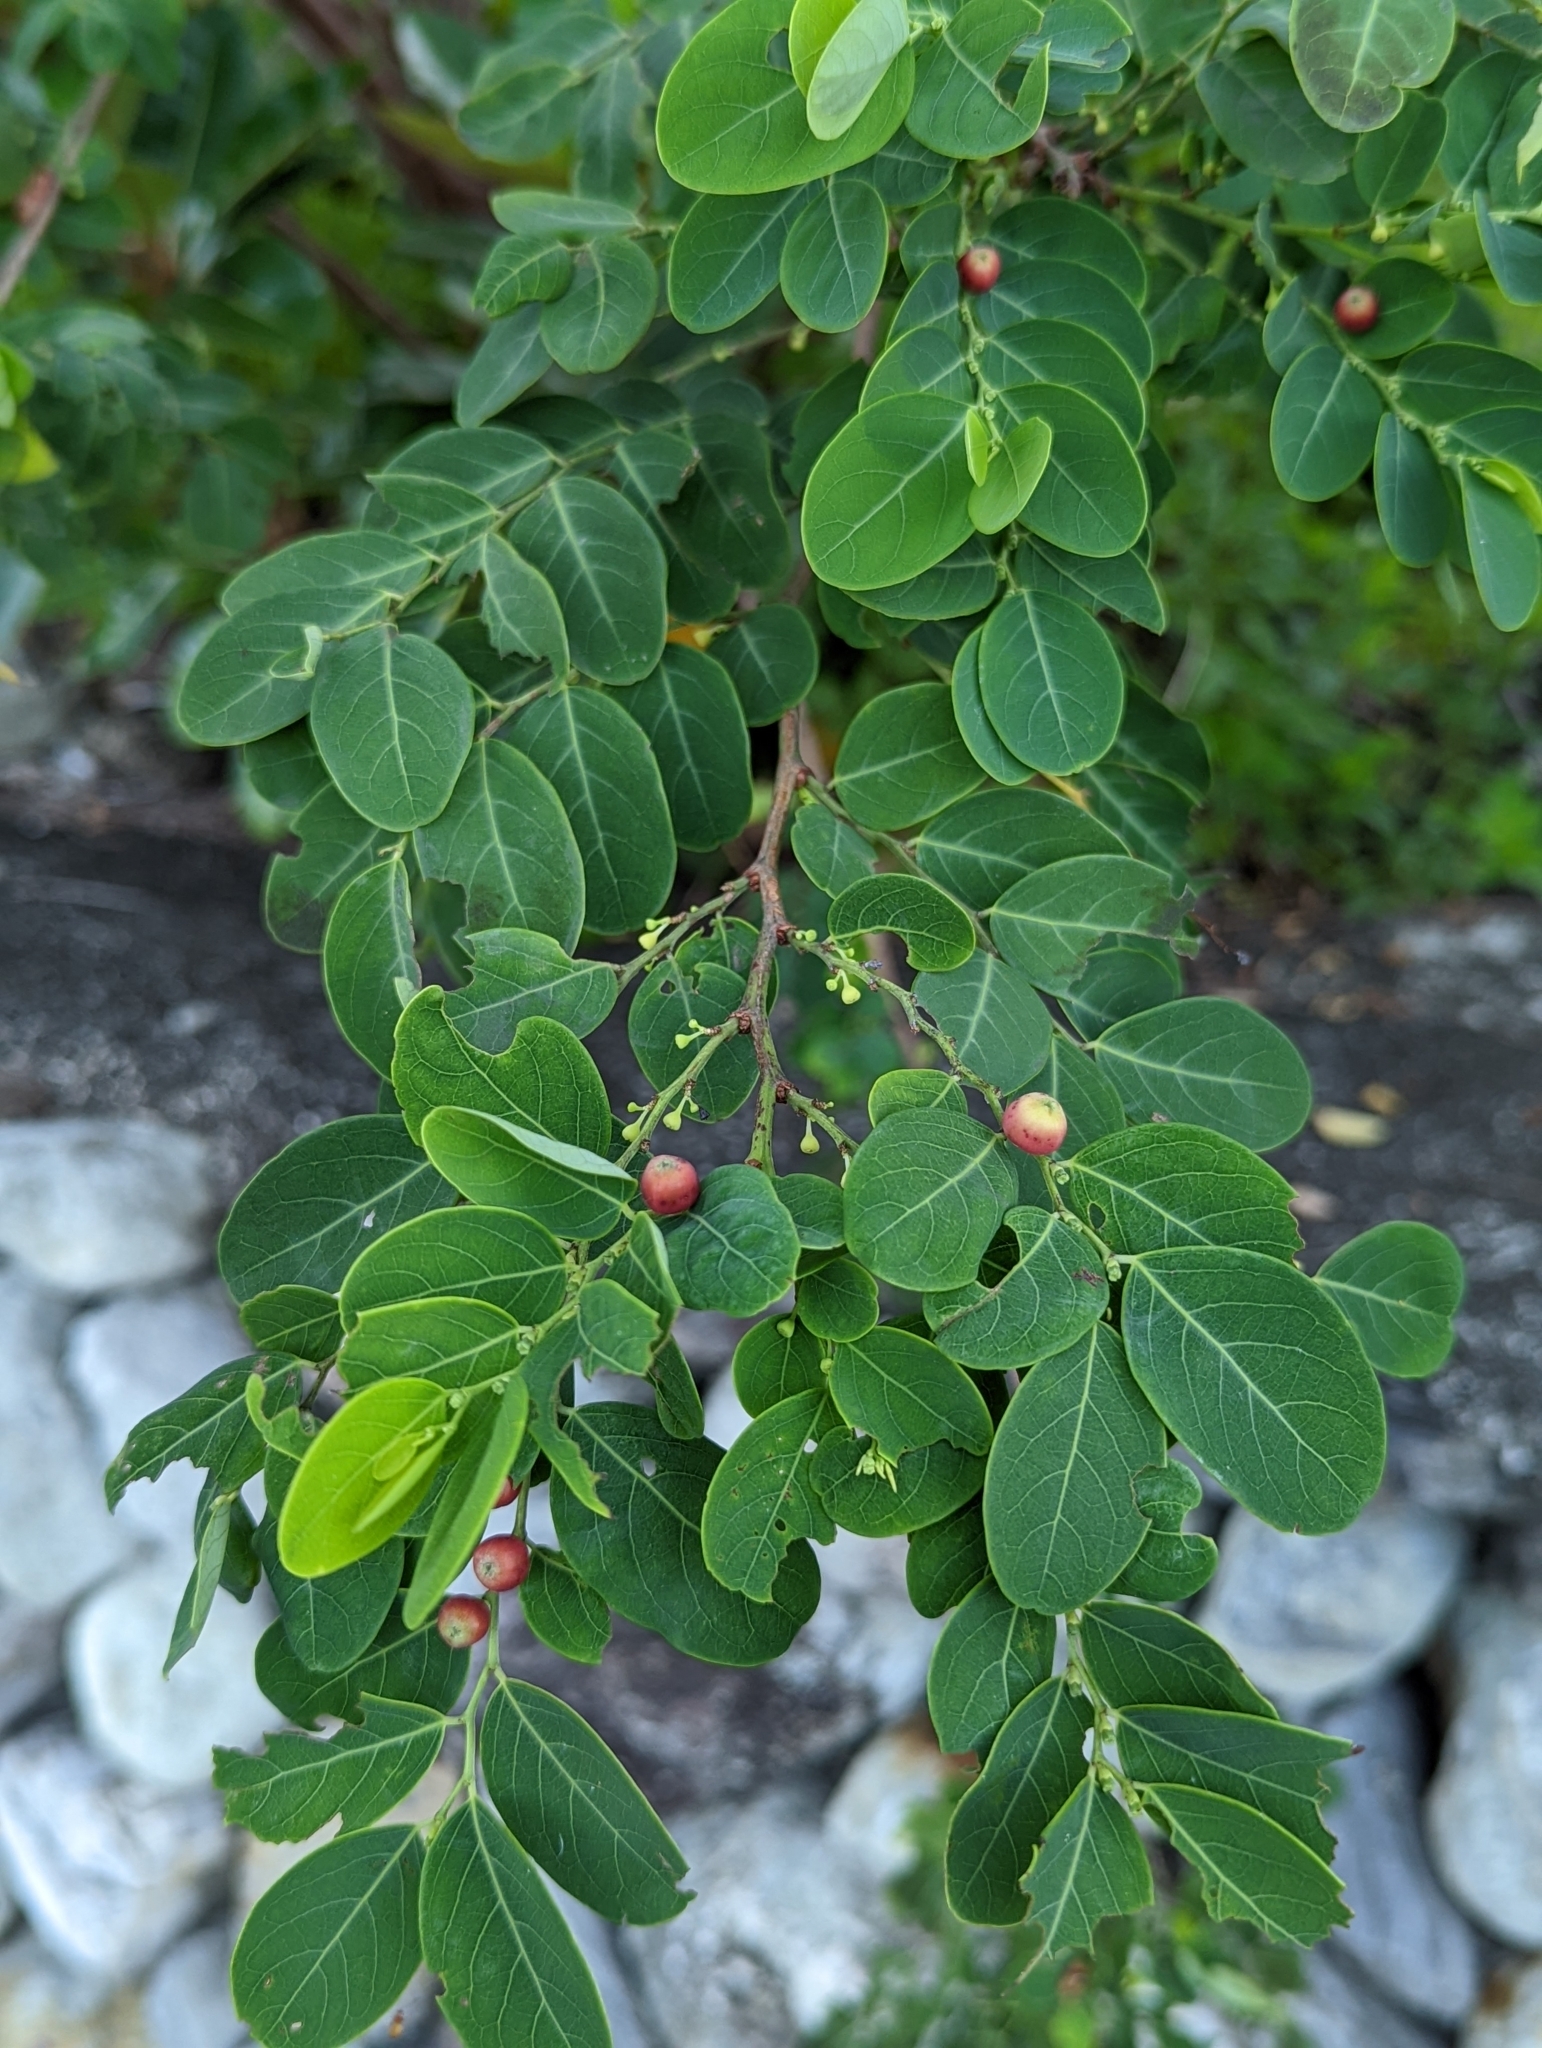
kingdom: Plantae
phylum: Tracheophyta
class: Magnoliopsida
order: Malpighiales
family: Phyllanthaceae
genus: Breynia
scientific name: Breynia vitis-idaea
